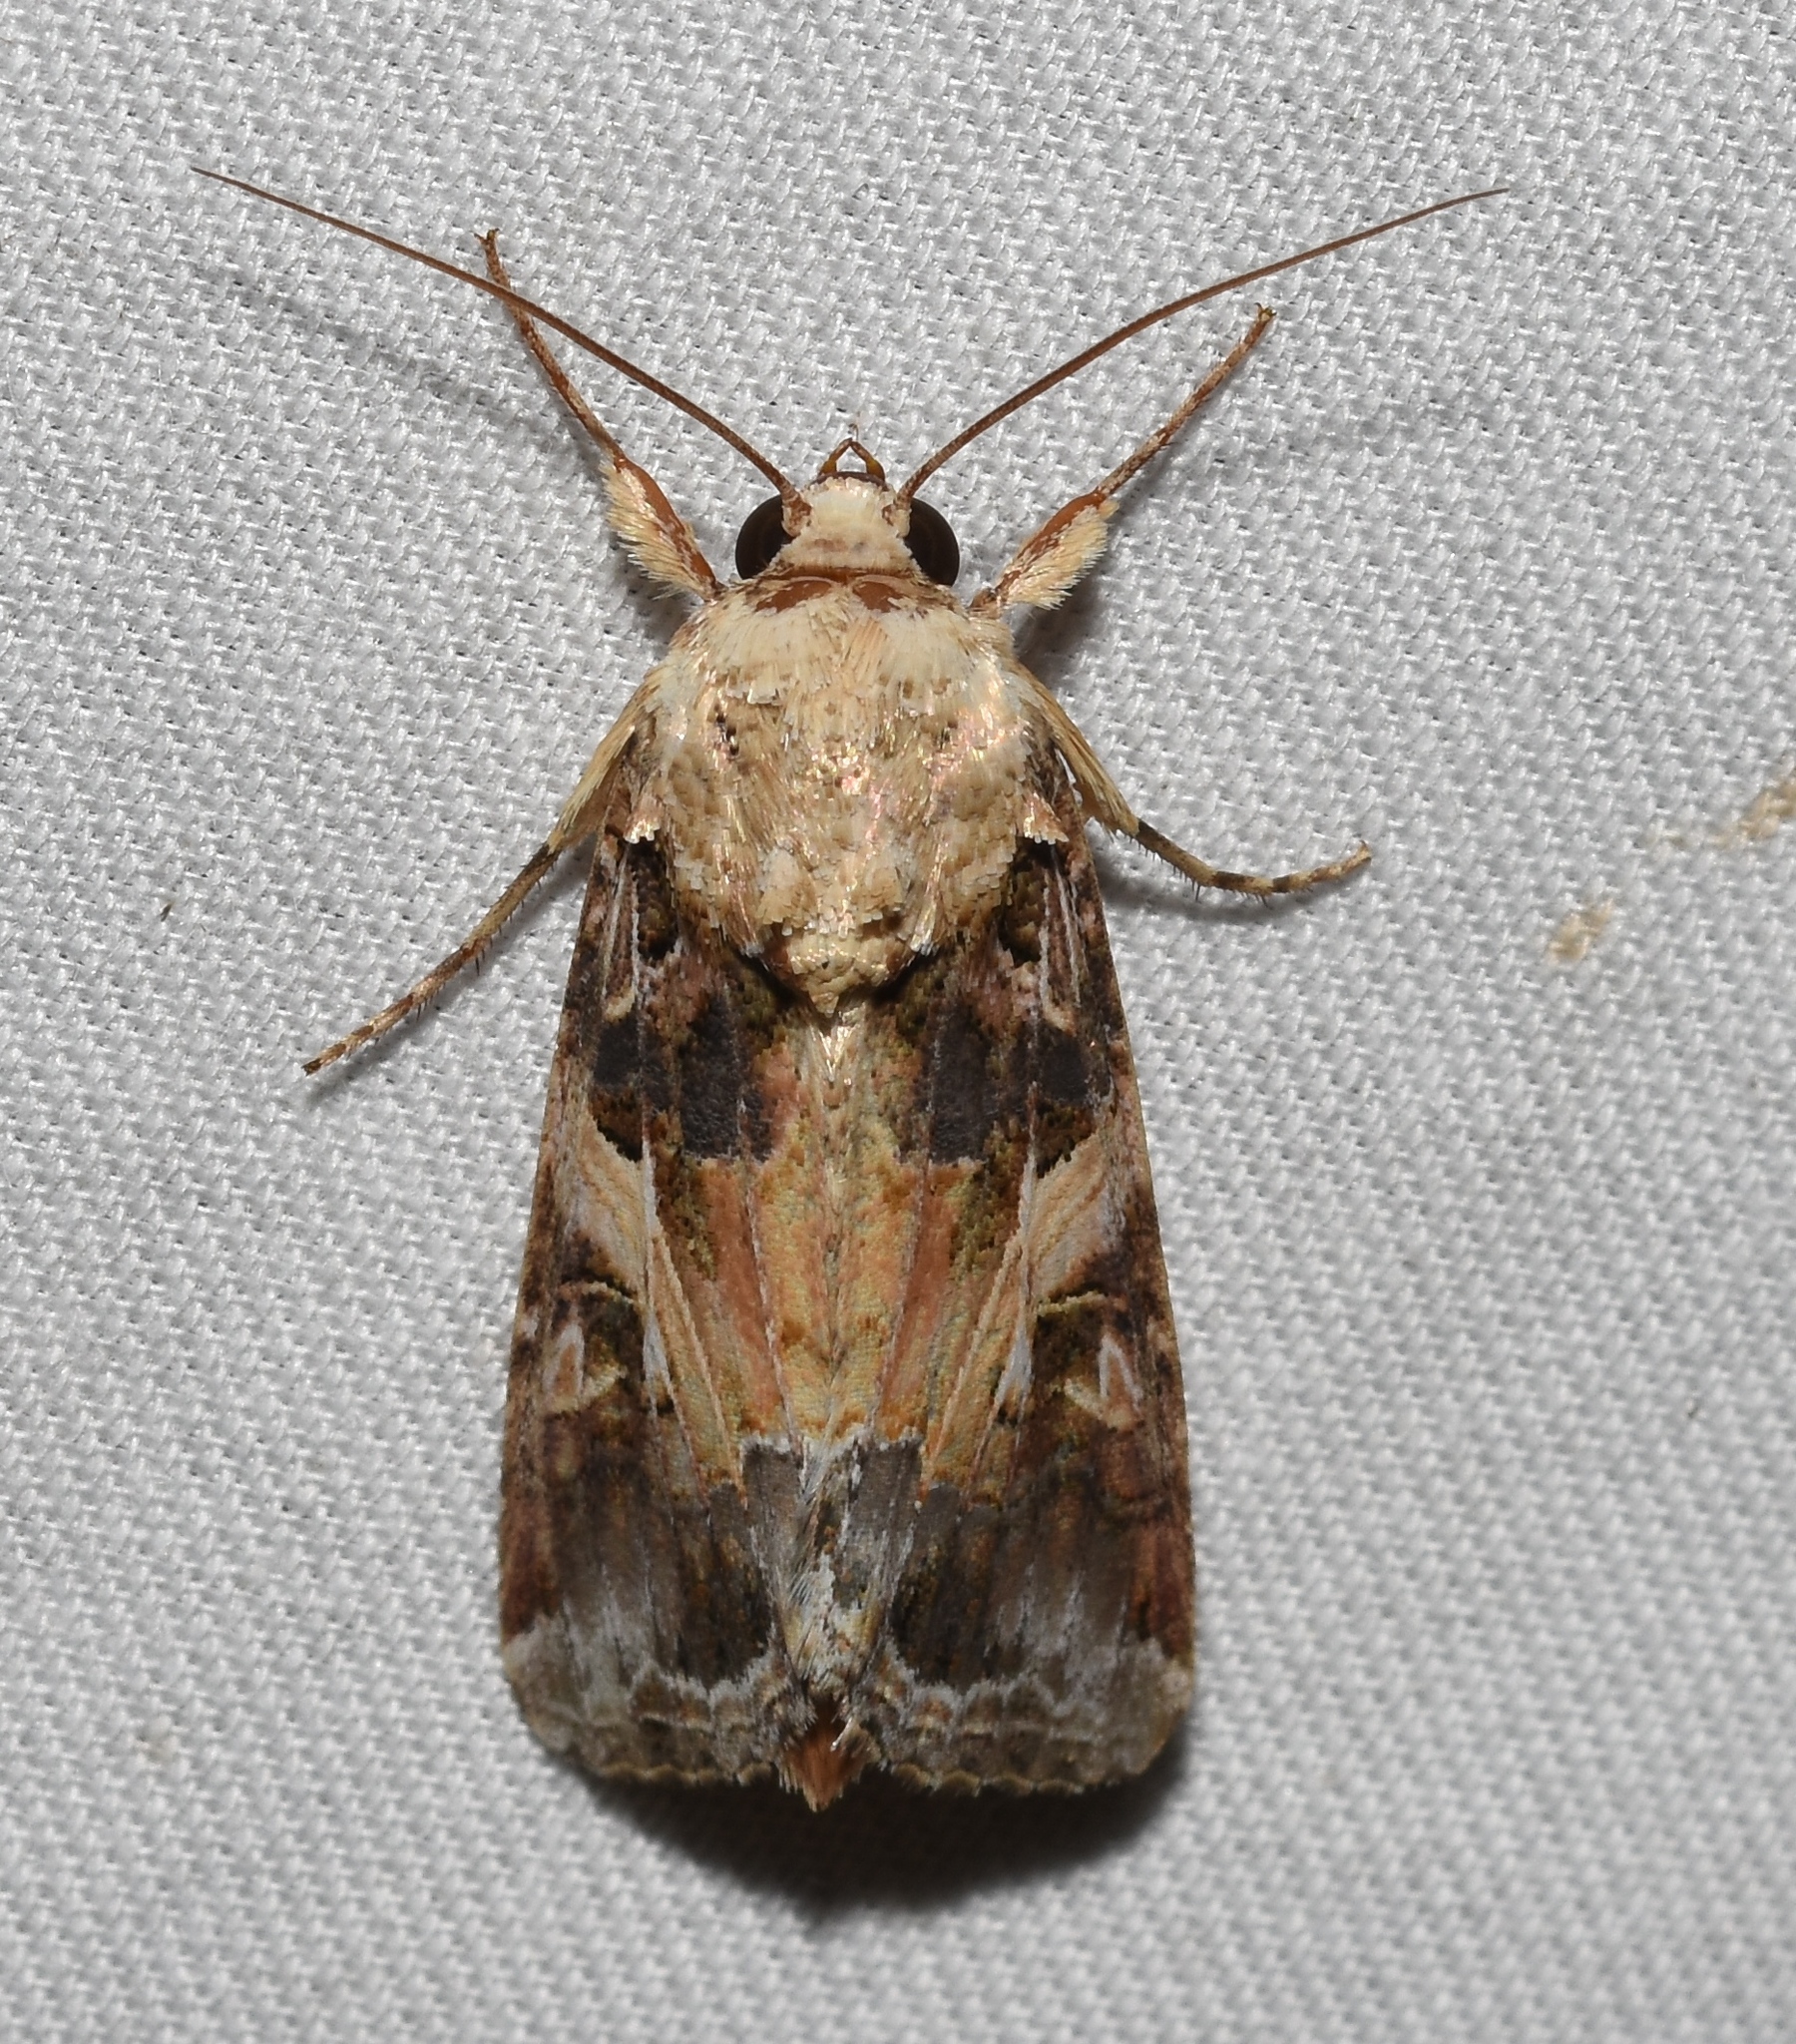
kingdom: Animalia
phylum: Arthropoda
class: Insecta
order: Lepidoptera
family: Noctuidae
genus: Spodoptera
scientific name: Spodoptera ornithogalli
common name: Yellow-striped armyworm
